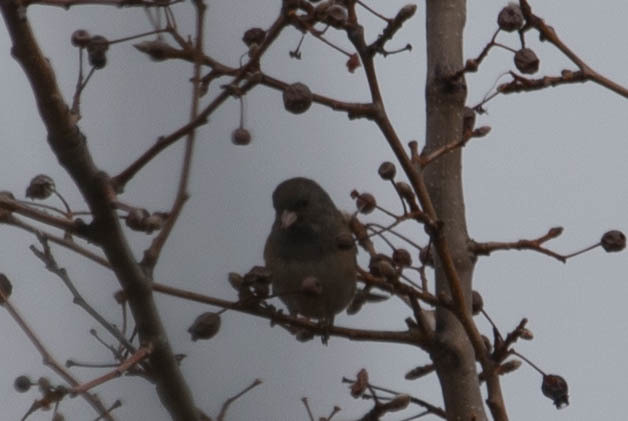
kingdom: Animalia
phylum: Chordata
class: Aves
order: Passeriformes
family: Passerellidae
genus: Junco
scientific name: Junco hyemalis
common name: Dark-eyed junco
